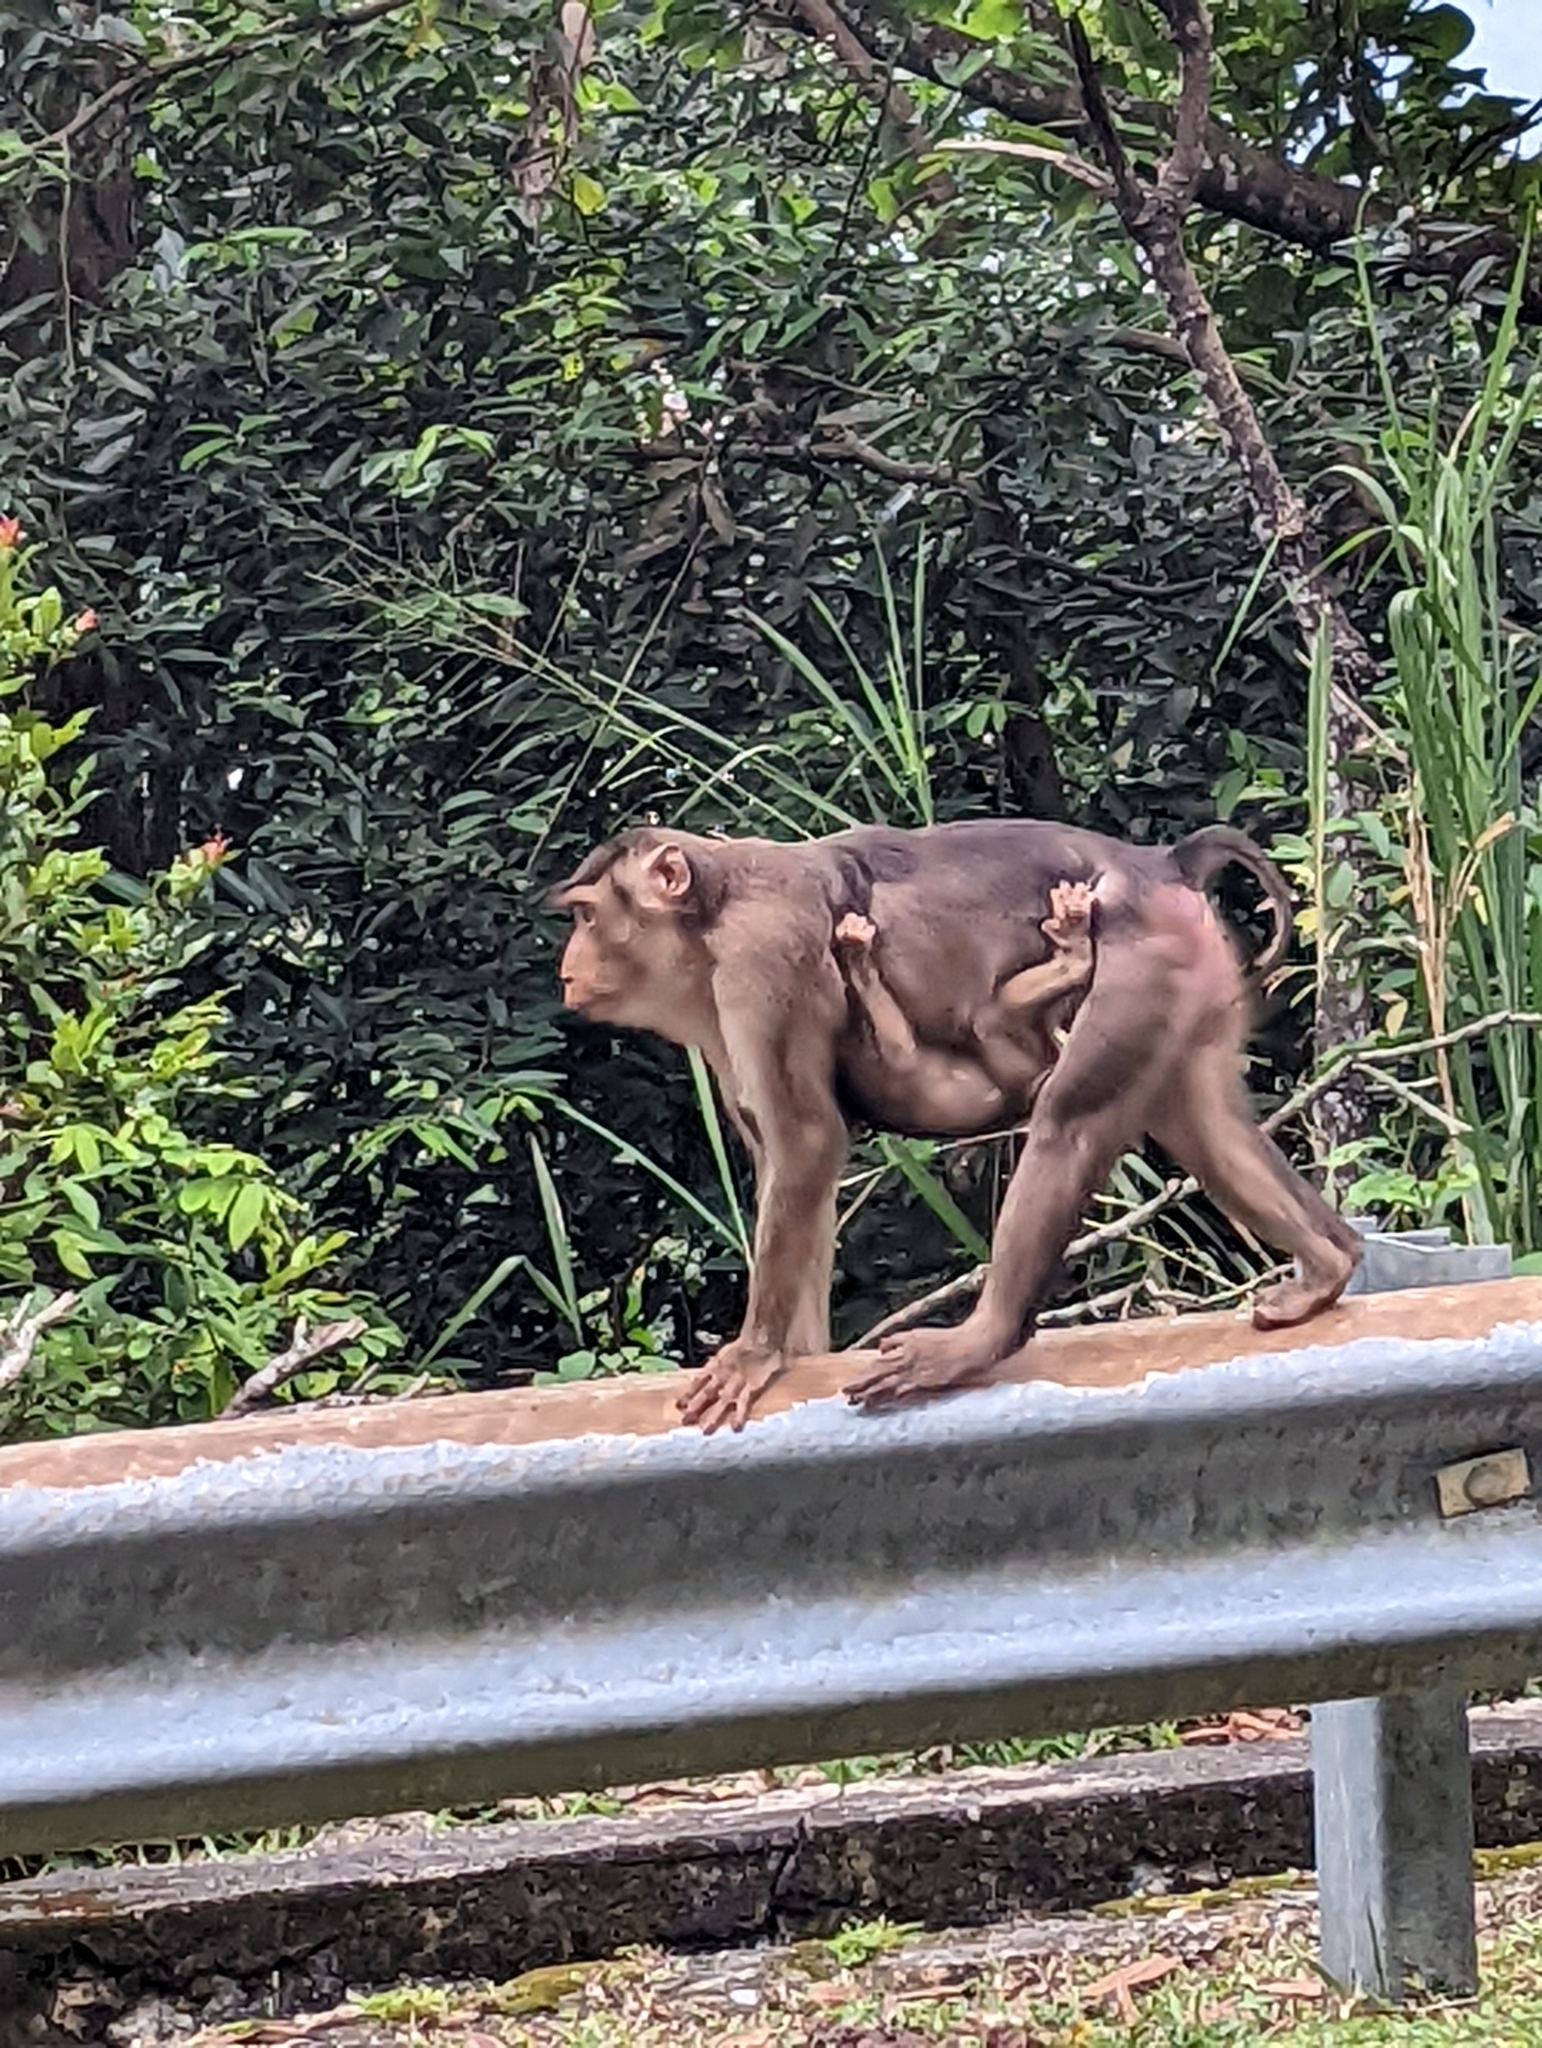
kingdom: Animalia
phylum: Chordata
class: Mammalia
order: Primates
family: Cercopithecidae
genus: Macaca
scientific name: Macaca nemestrina
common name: Southern pig-tailed macaque
